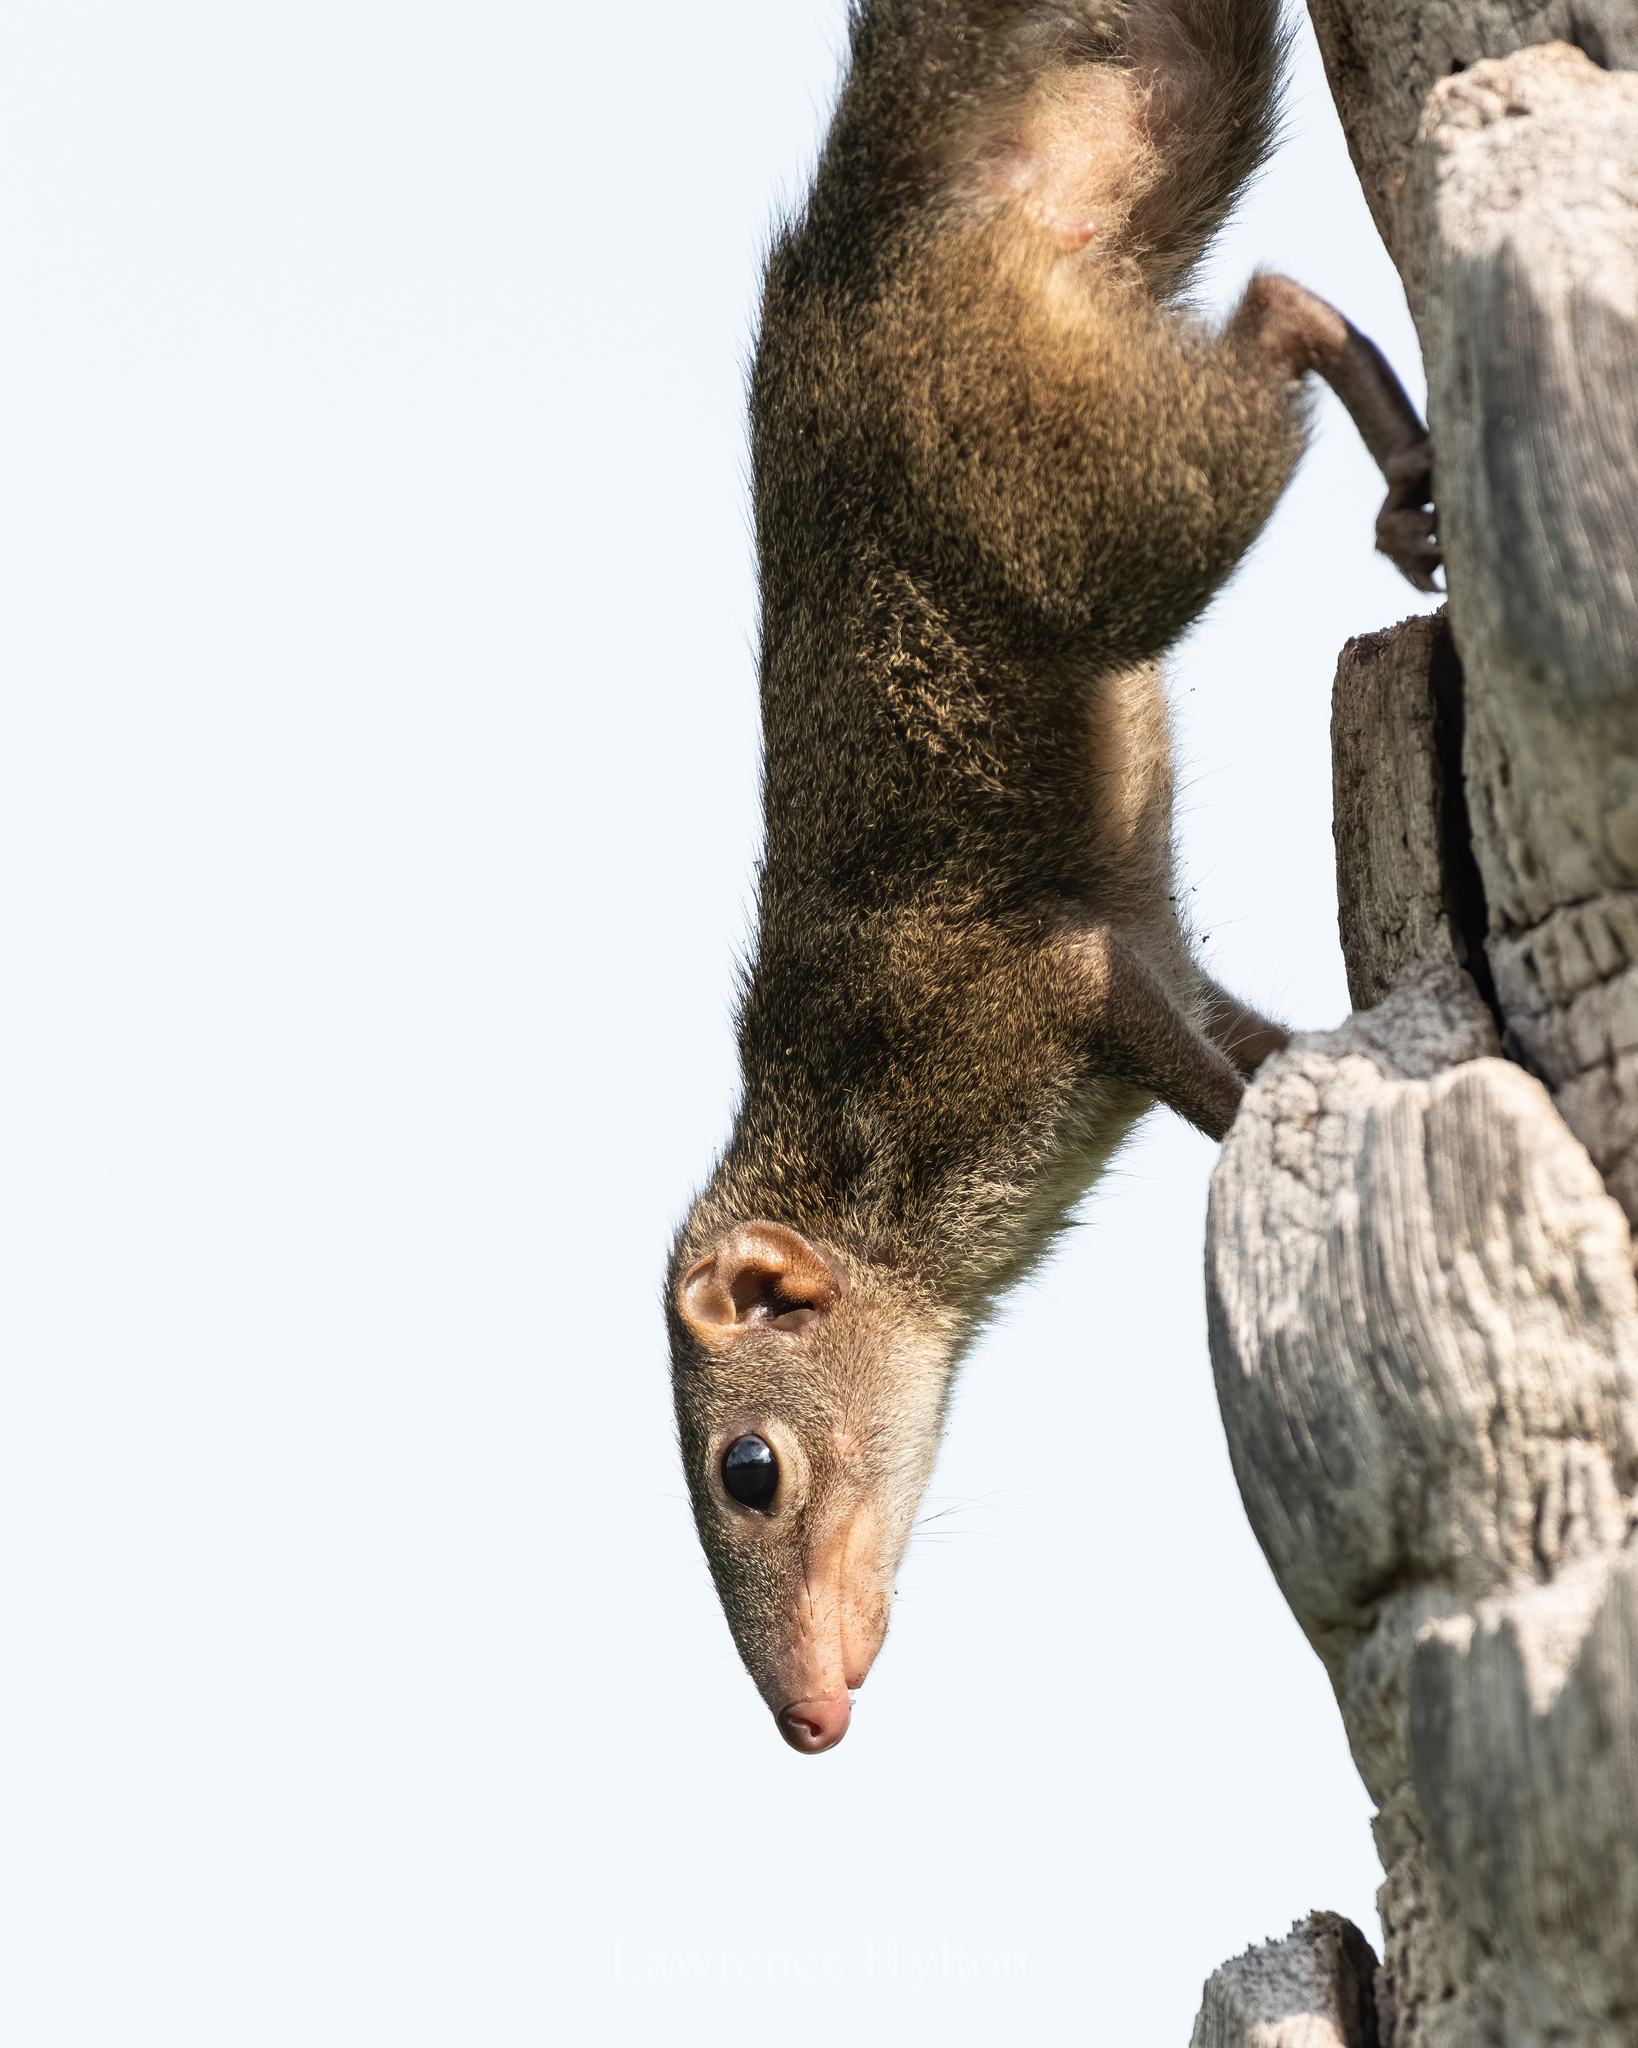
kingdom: Animalia
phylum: Chordata
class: Mammalia
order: Scandentia
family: Tupaiidae
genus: Tupaia
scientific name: Tupaia belangeri
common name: Northern treeshrew
